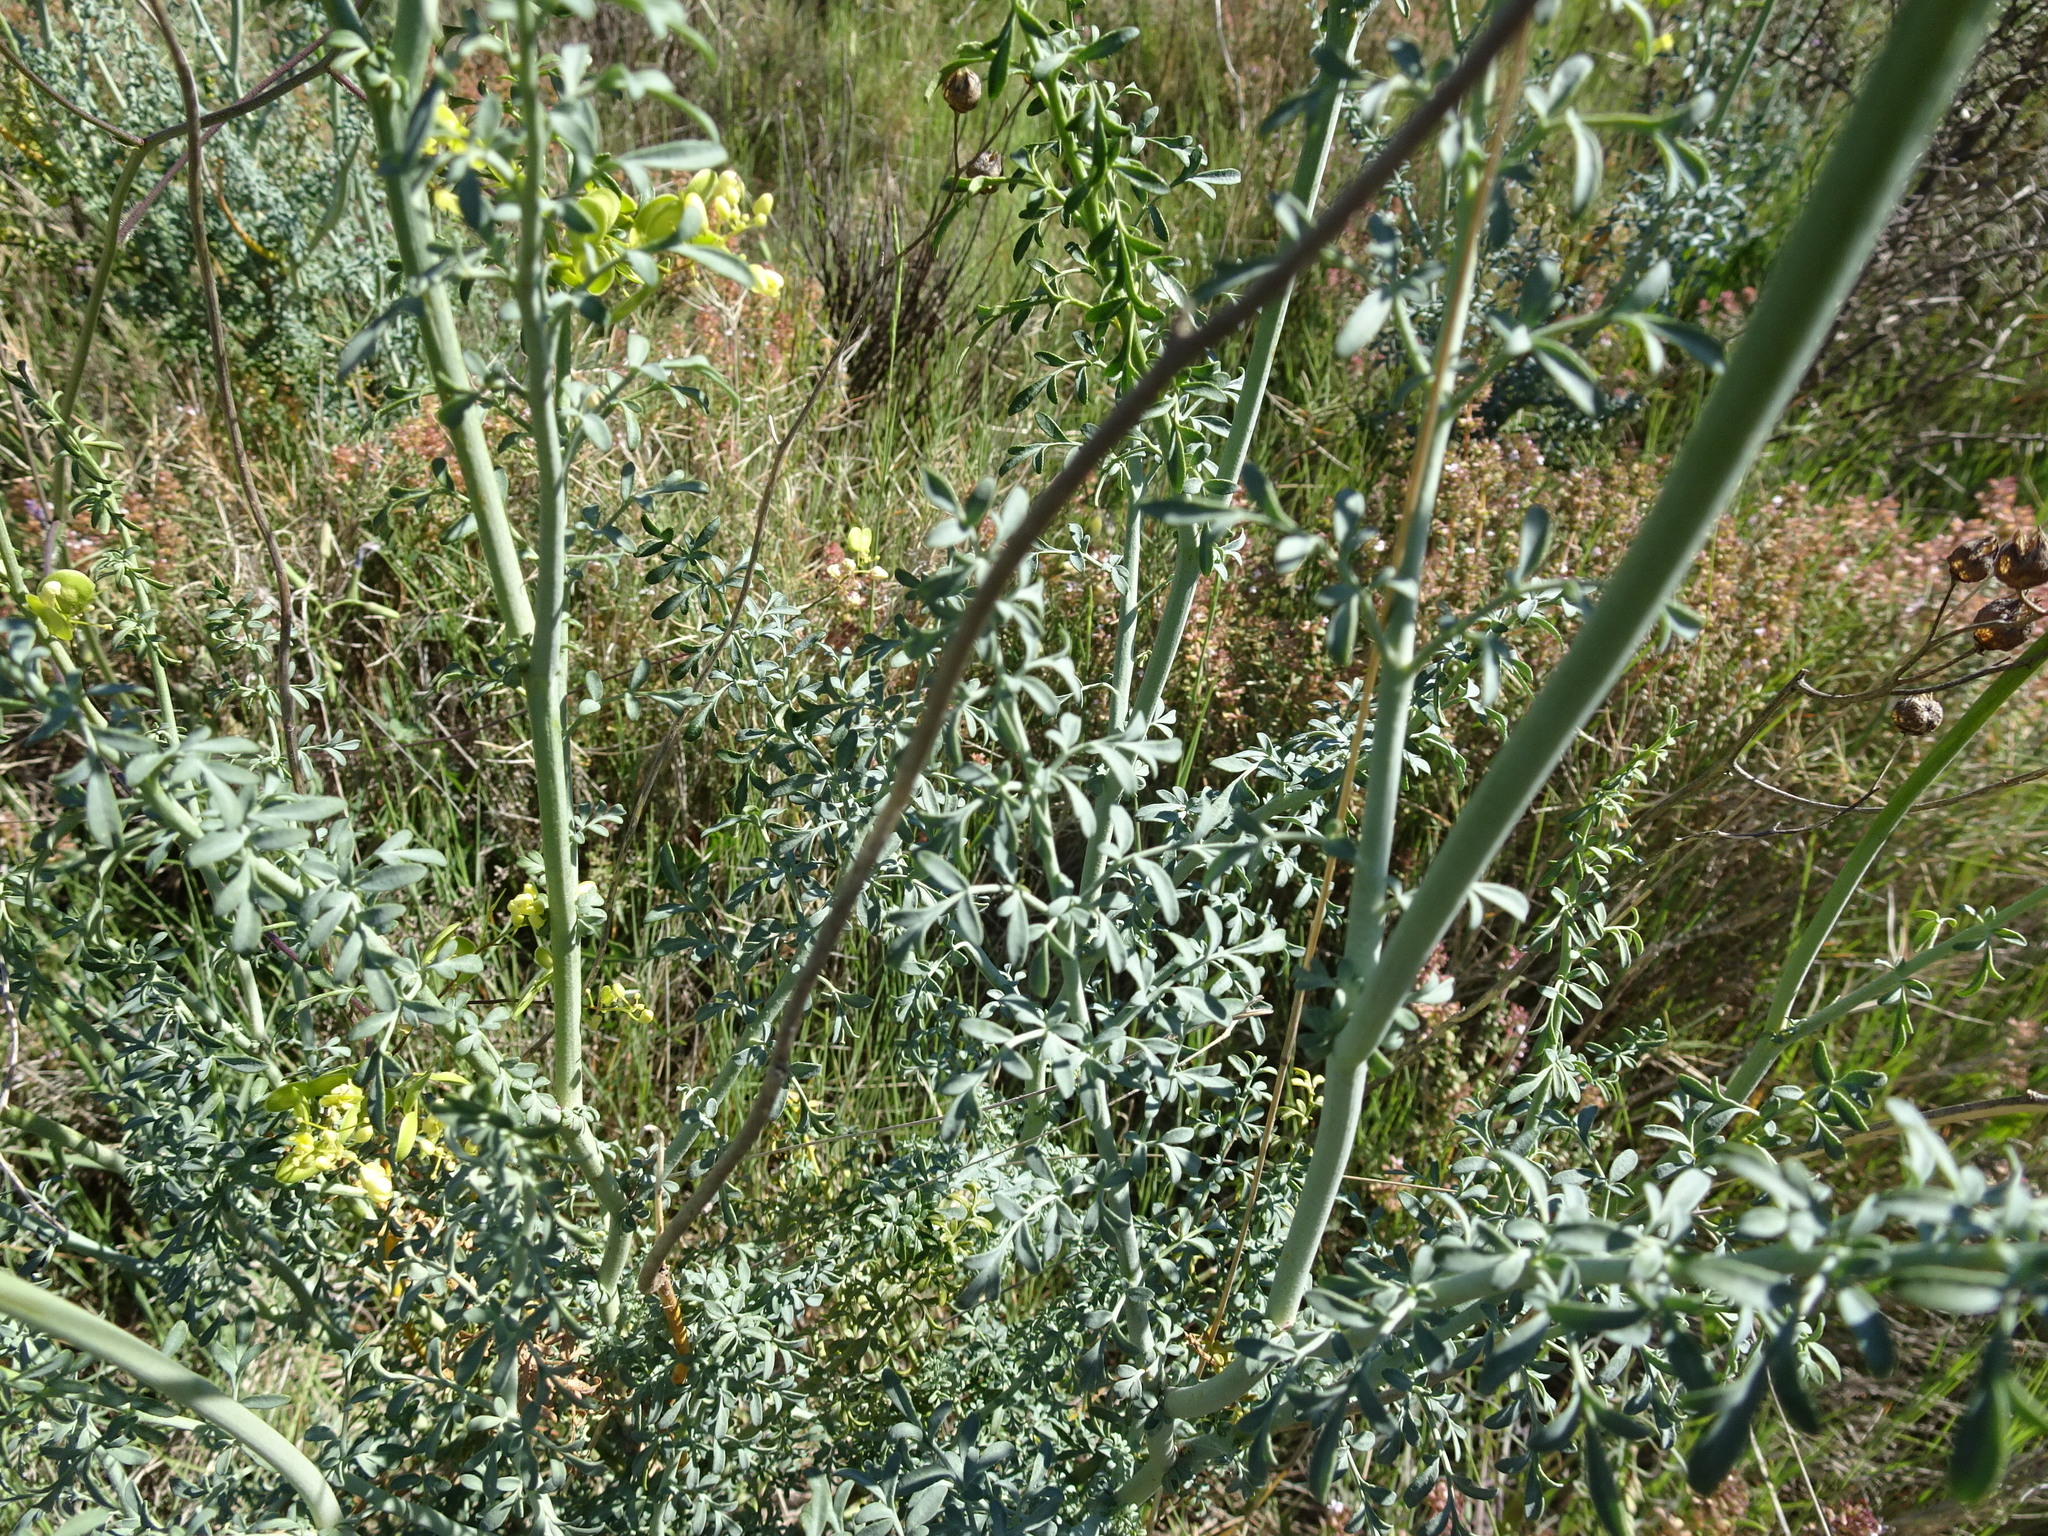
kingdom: Plantae
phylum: Tracheophyta
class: Magnoliopsida
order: Sapindales
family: Rutaceae
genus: Ruta
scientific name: Ruta angustifolia
